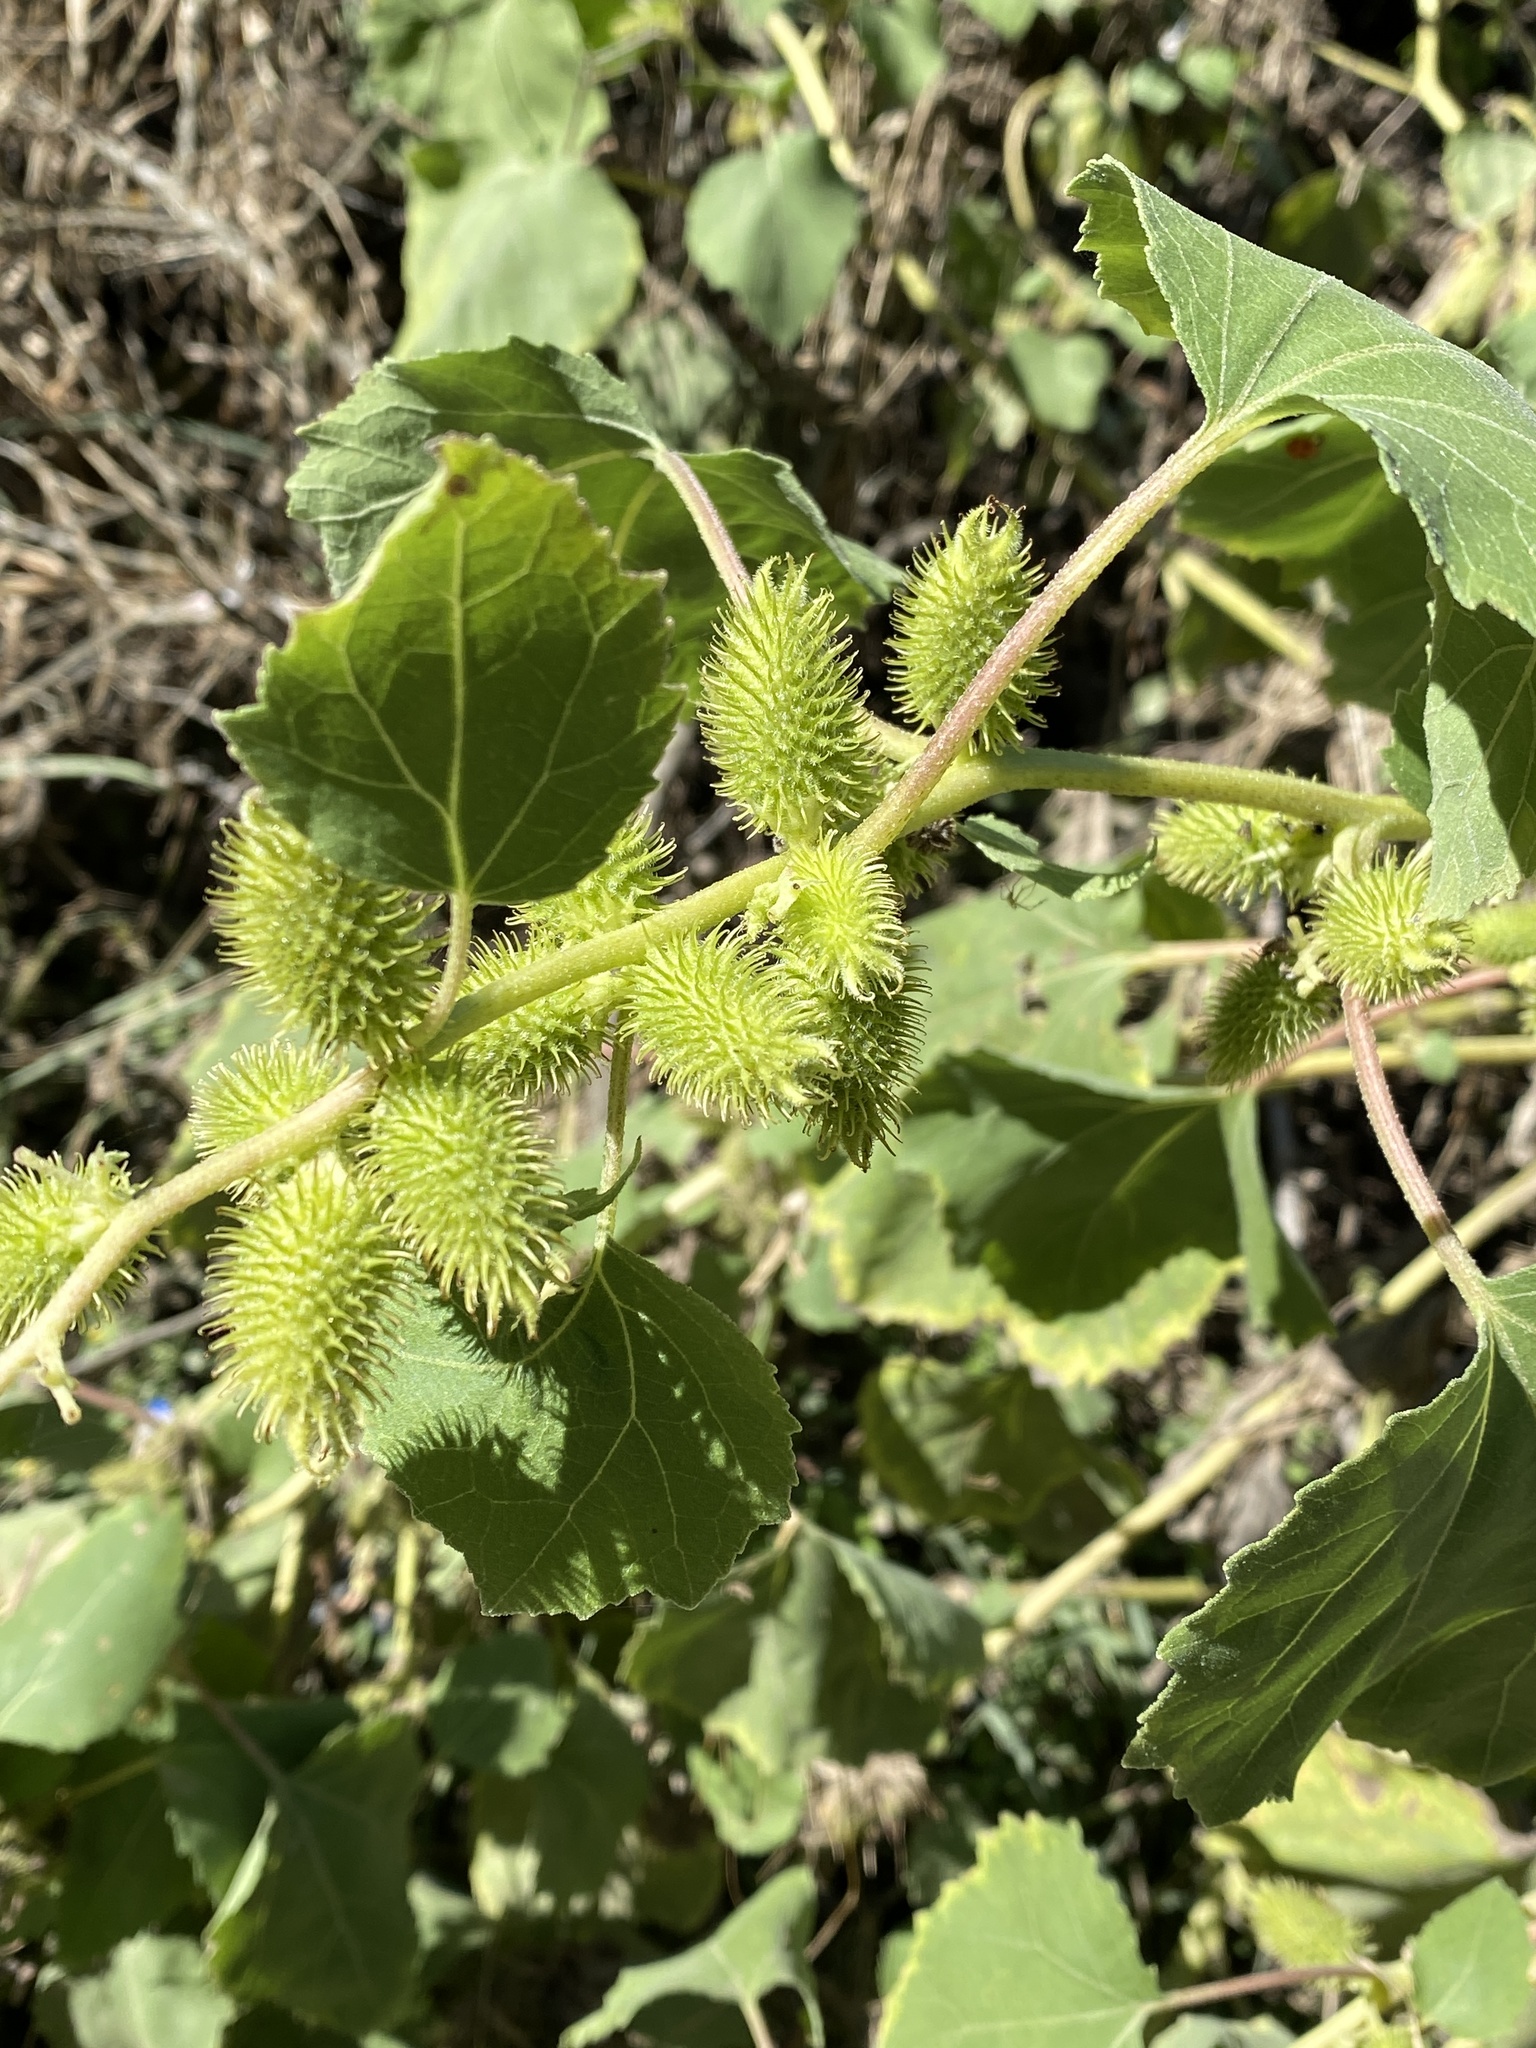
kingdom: Plantae
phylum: Tracheophyta
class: Magnoliopsida
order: Asterales
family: Asteraceae
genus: Xanthium
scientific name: Xanthium strumarium
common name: Rough cocklebur
